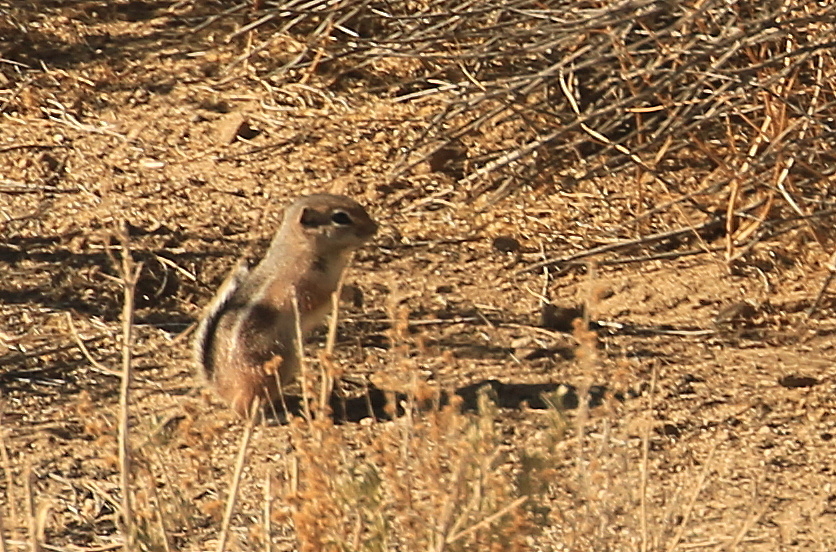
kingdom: Animalia
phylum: Chordata
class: Mammalia
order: Rodentia
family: Sciuridae
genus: Ammospermophilus
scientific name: Ammospermophilus leucurus
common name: White-tailed antelope squirrel
